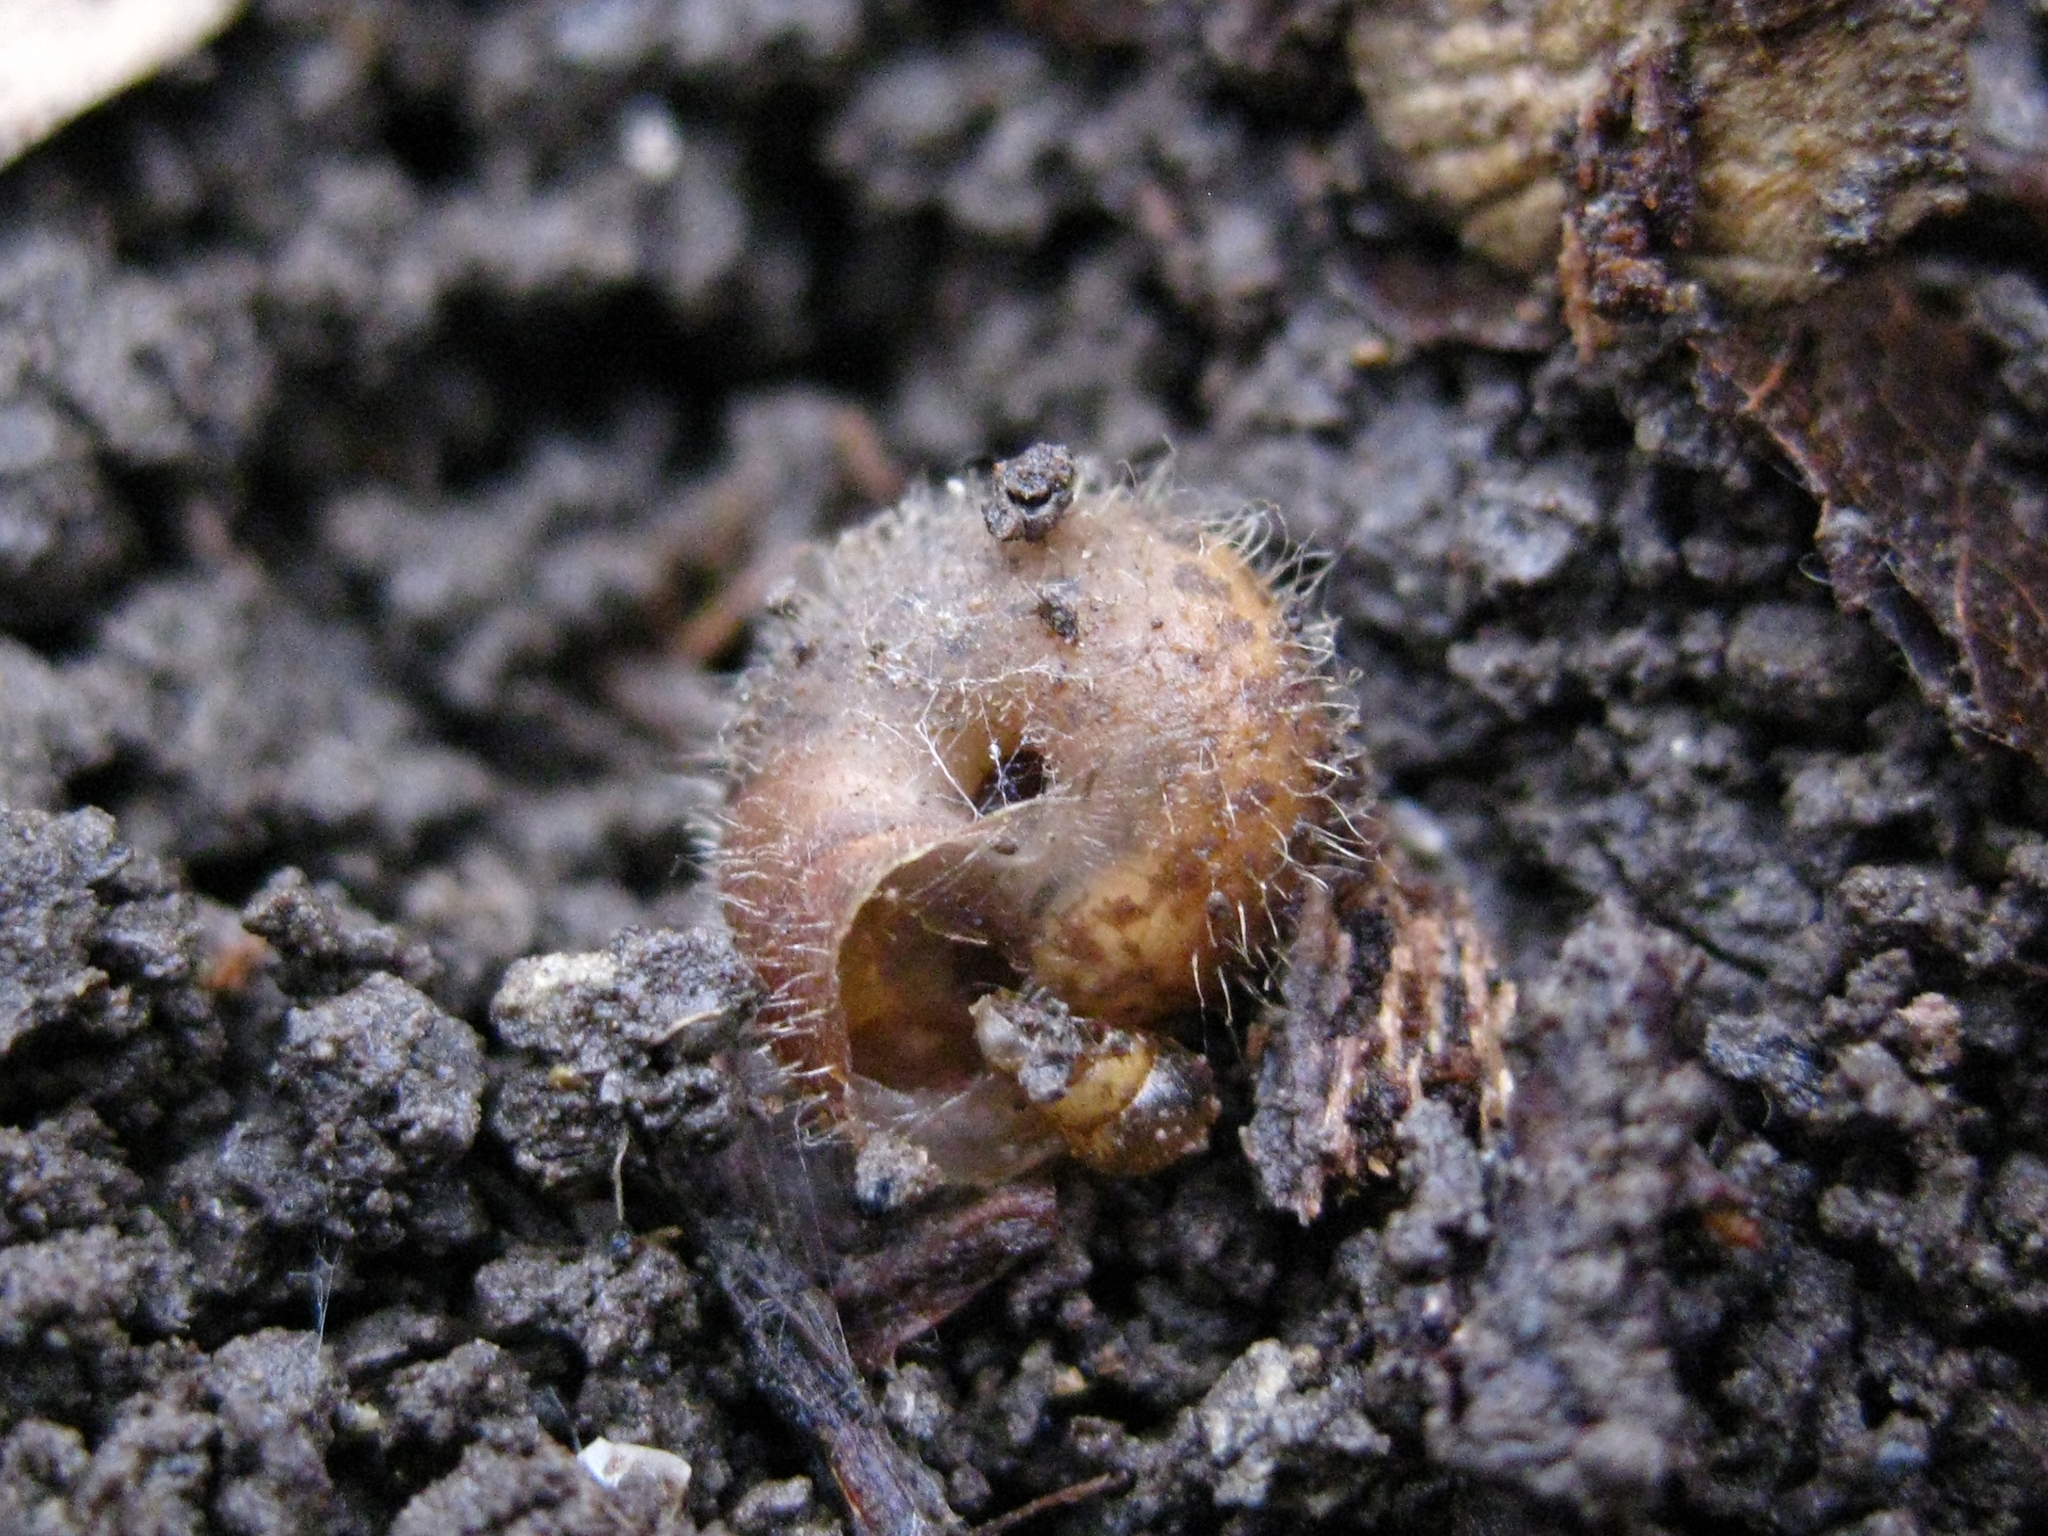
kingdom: Animalia
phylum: Mollusca
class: Gastropoda
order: Stylommatophora
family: Hygromiidae
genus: Euomphalia
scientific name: Euomphalia aristata
